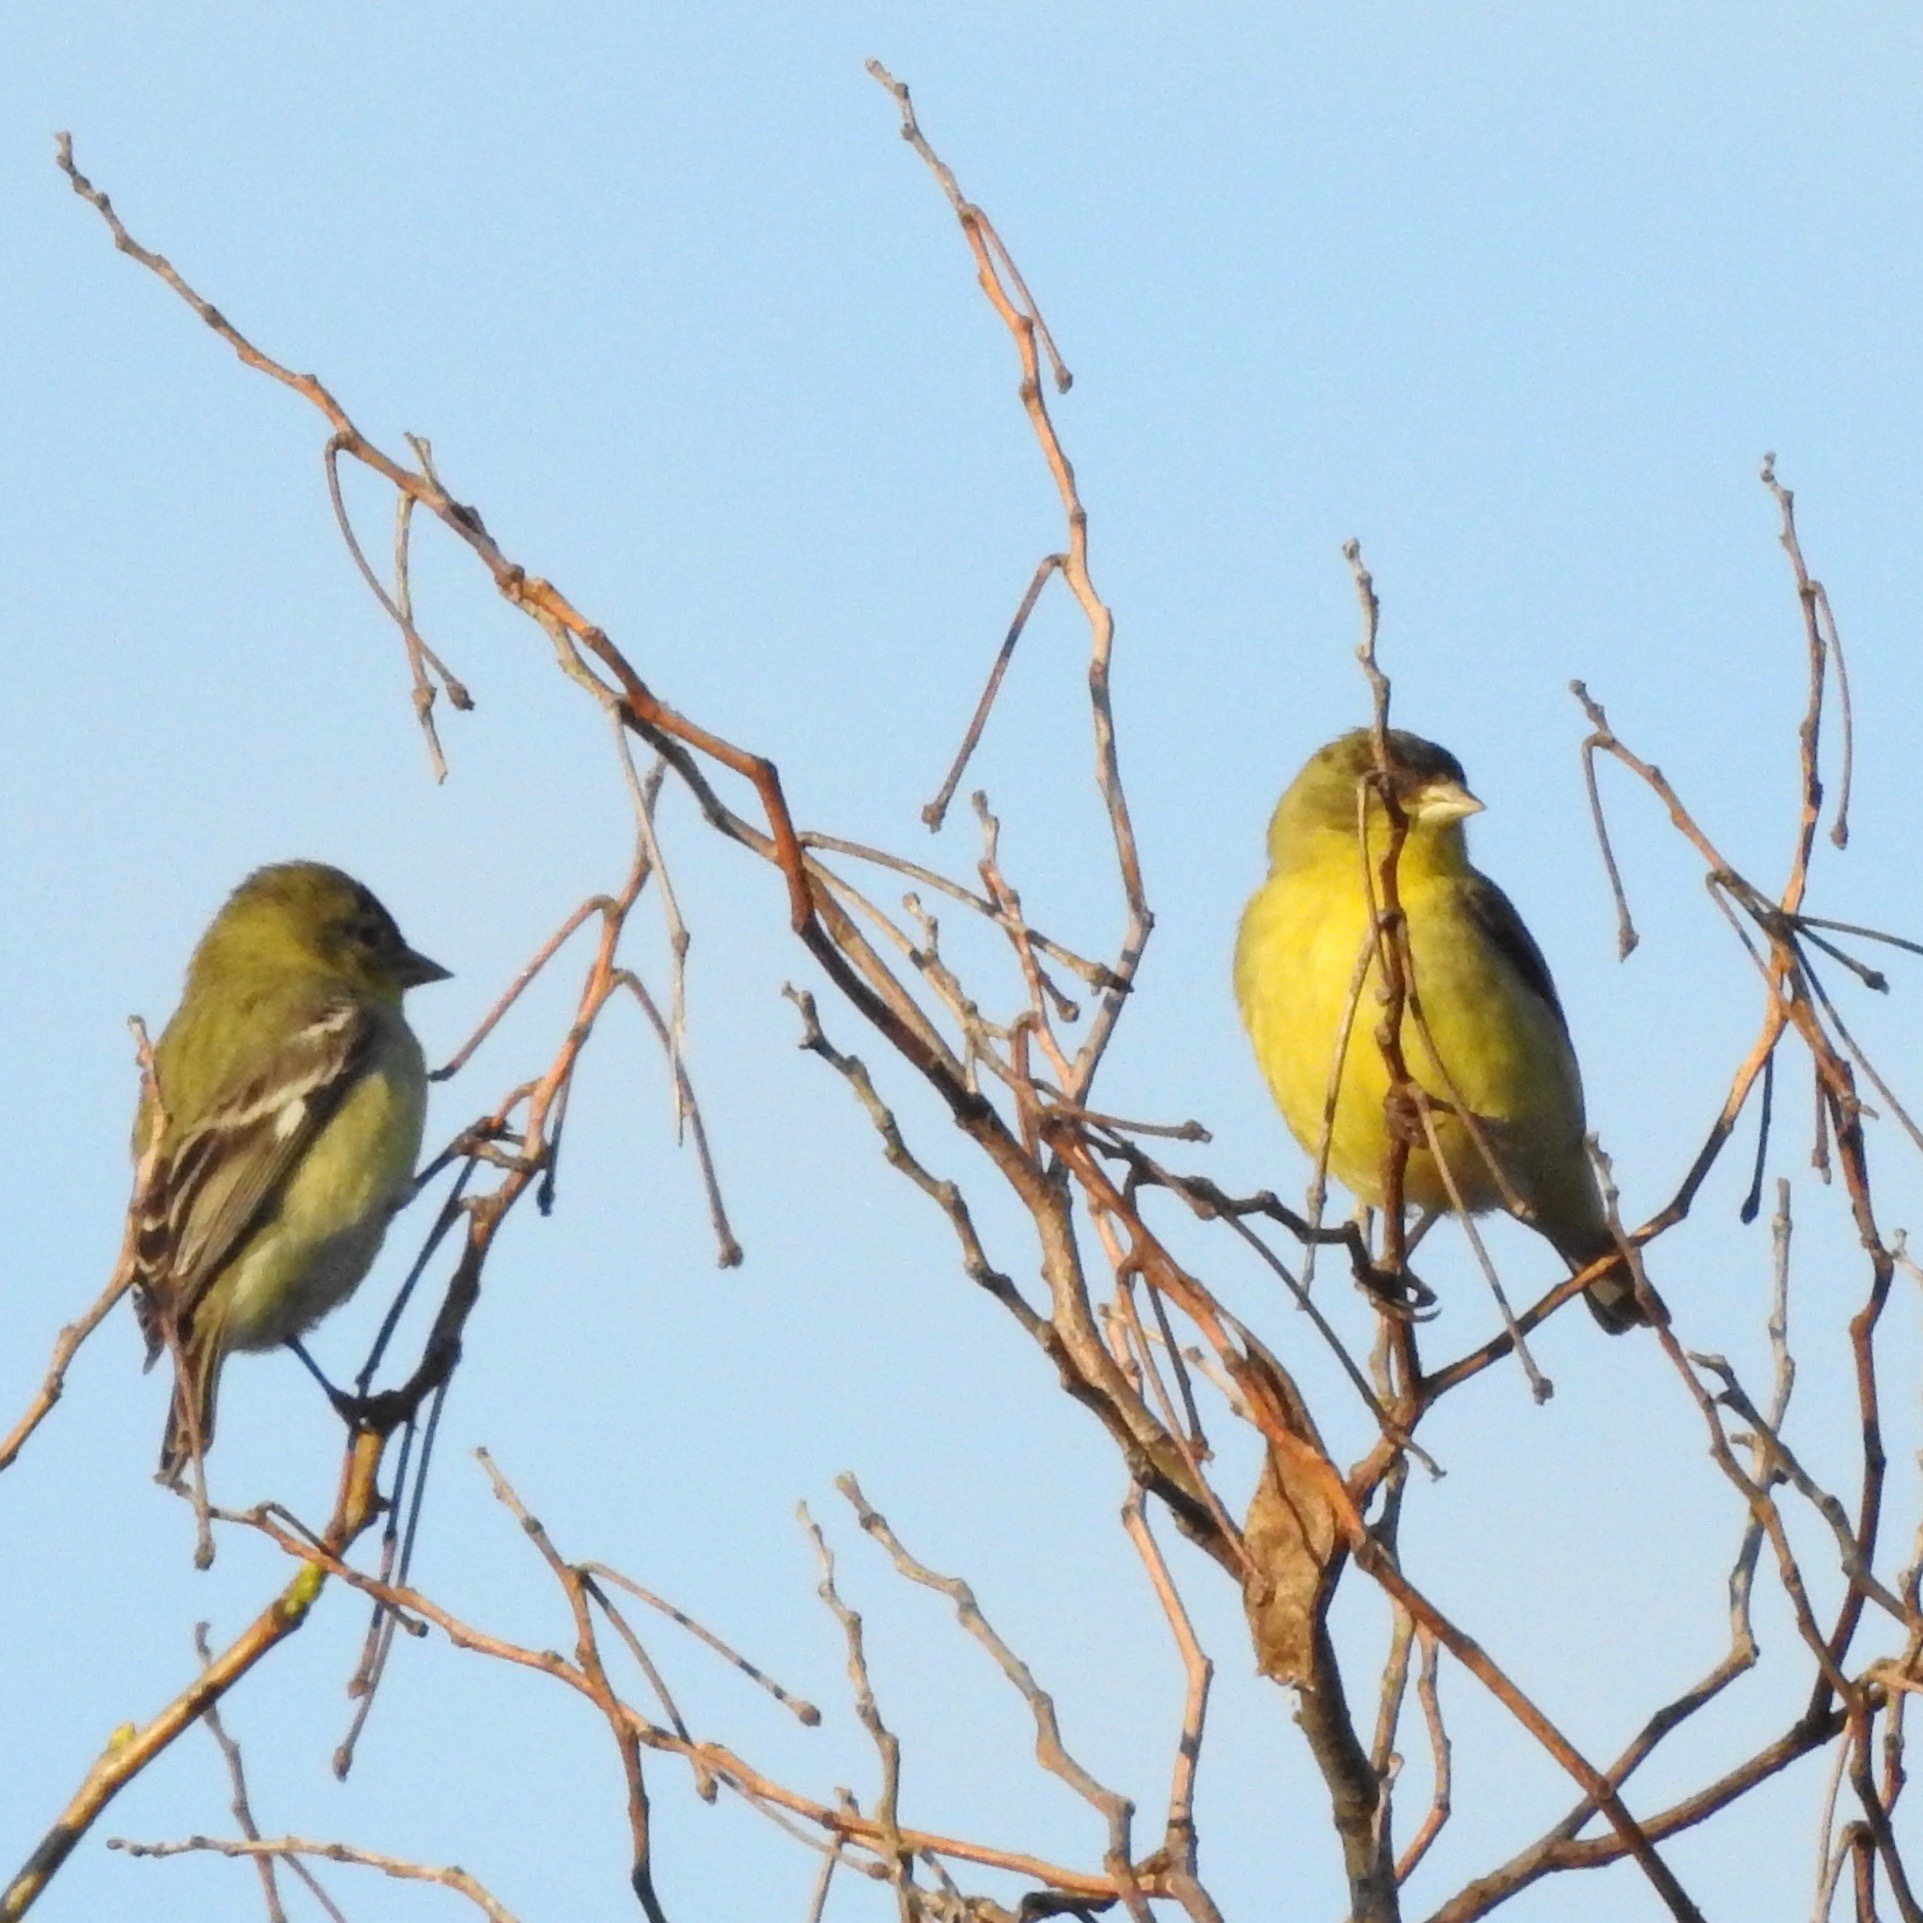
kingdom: Animalia
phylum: Chordata
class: Aves
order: Passeriformes
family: Fringillidae
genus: Spinus
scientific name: Spinus psaltria
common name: Lesser goldfinch
